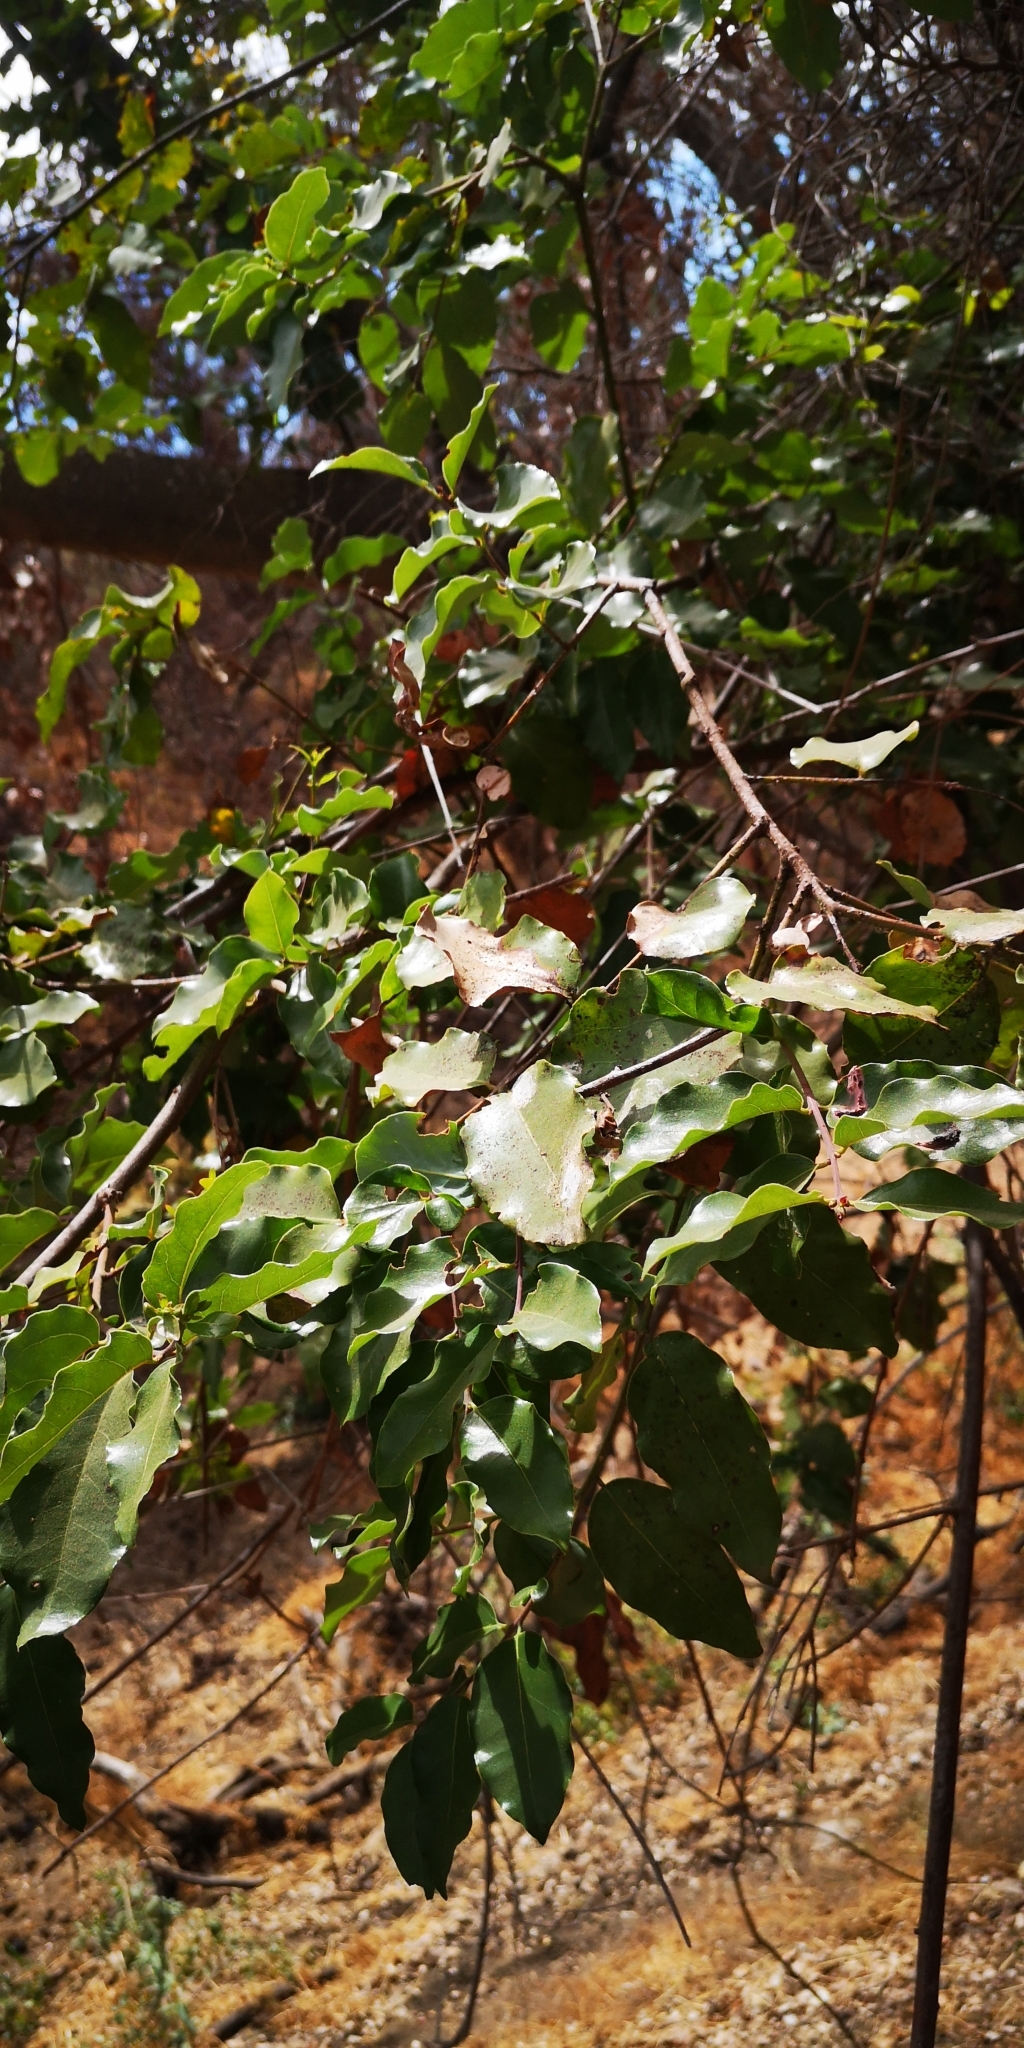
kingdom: Plantae
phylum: Tracheophyta
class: Magnoliopsida
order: Laurales
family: Lauraceae
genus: Cryptocarya
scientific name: Cryptocarya alba
